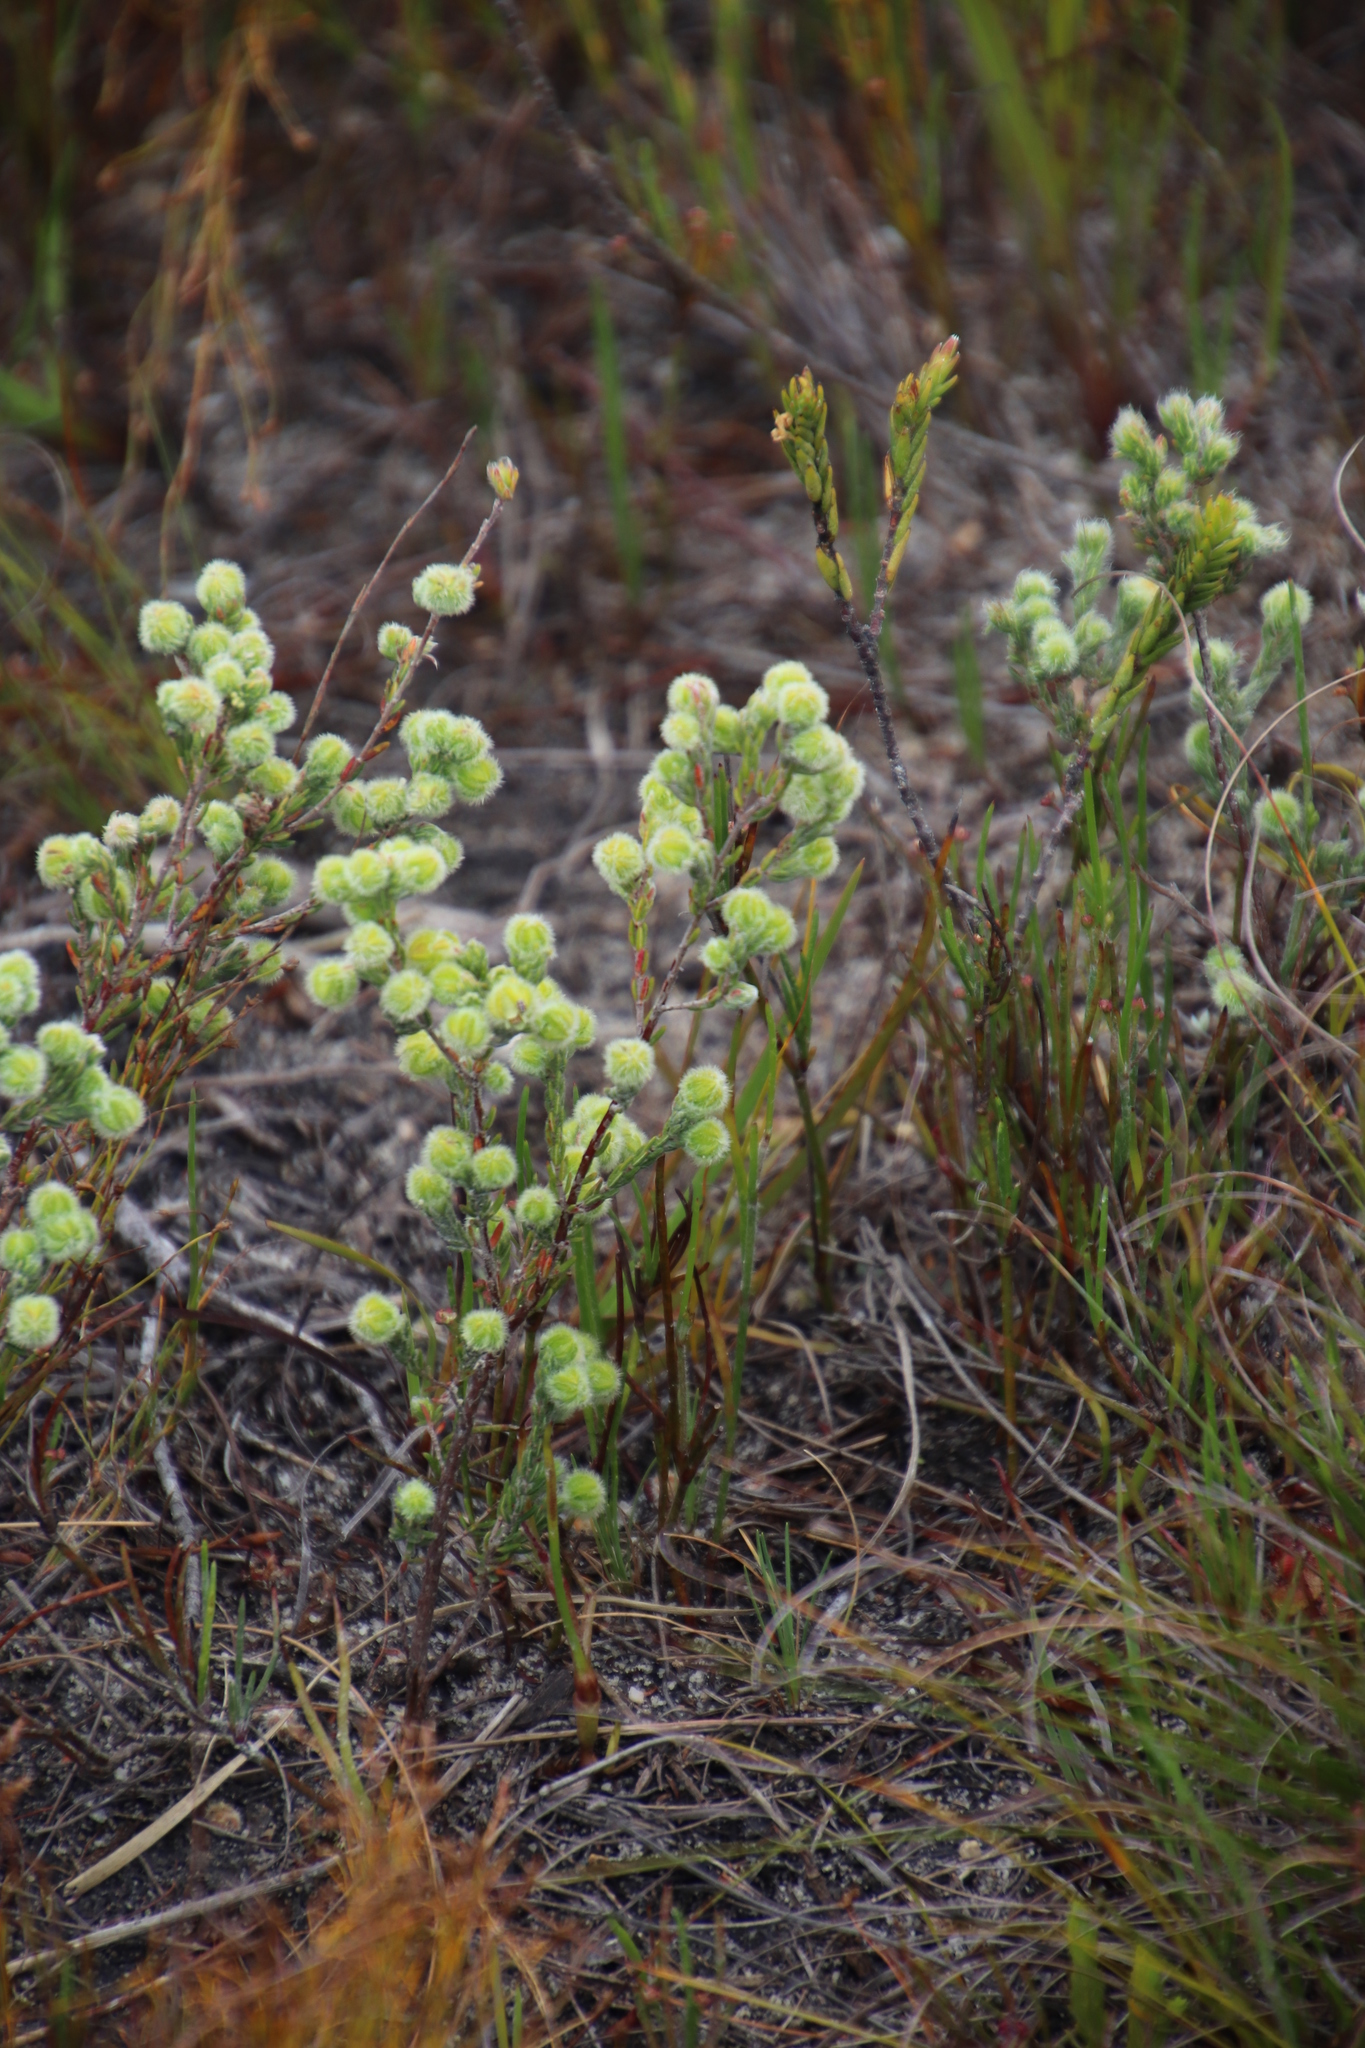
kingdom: Plantae
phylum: Tracheophyta
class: Magnoliopsida
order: Ericales
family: Ericaceae
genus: Erica
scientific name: Erica capitata
